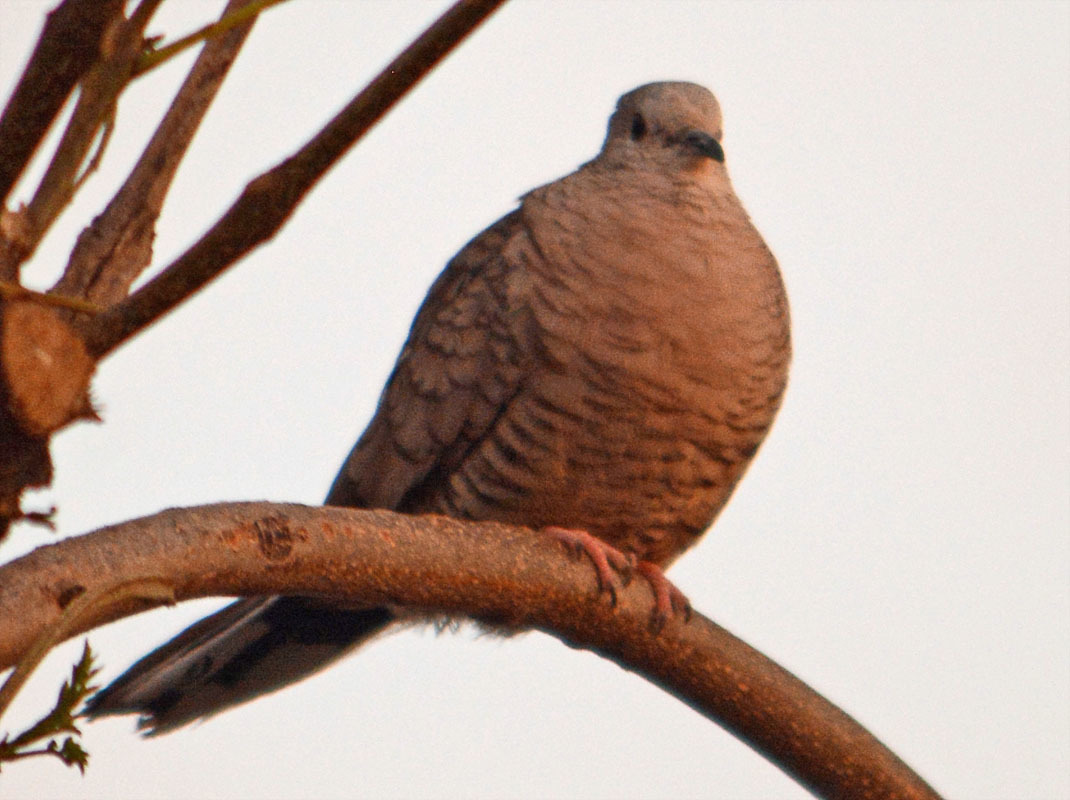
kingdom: Animalia
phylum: Chordata
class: Aves
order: Columbiformes
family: Columbidae
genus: Columbina
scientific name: Columbina inca
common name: Inca dove
